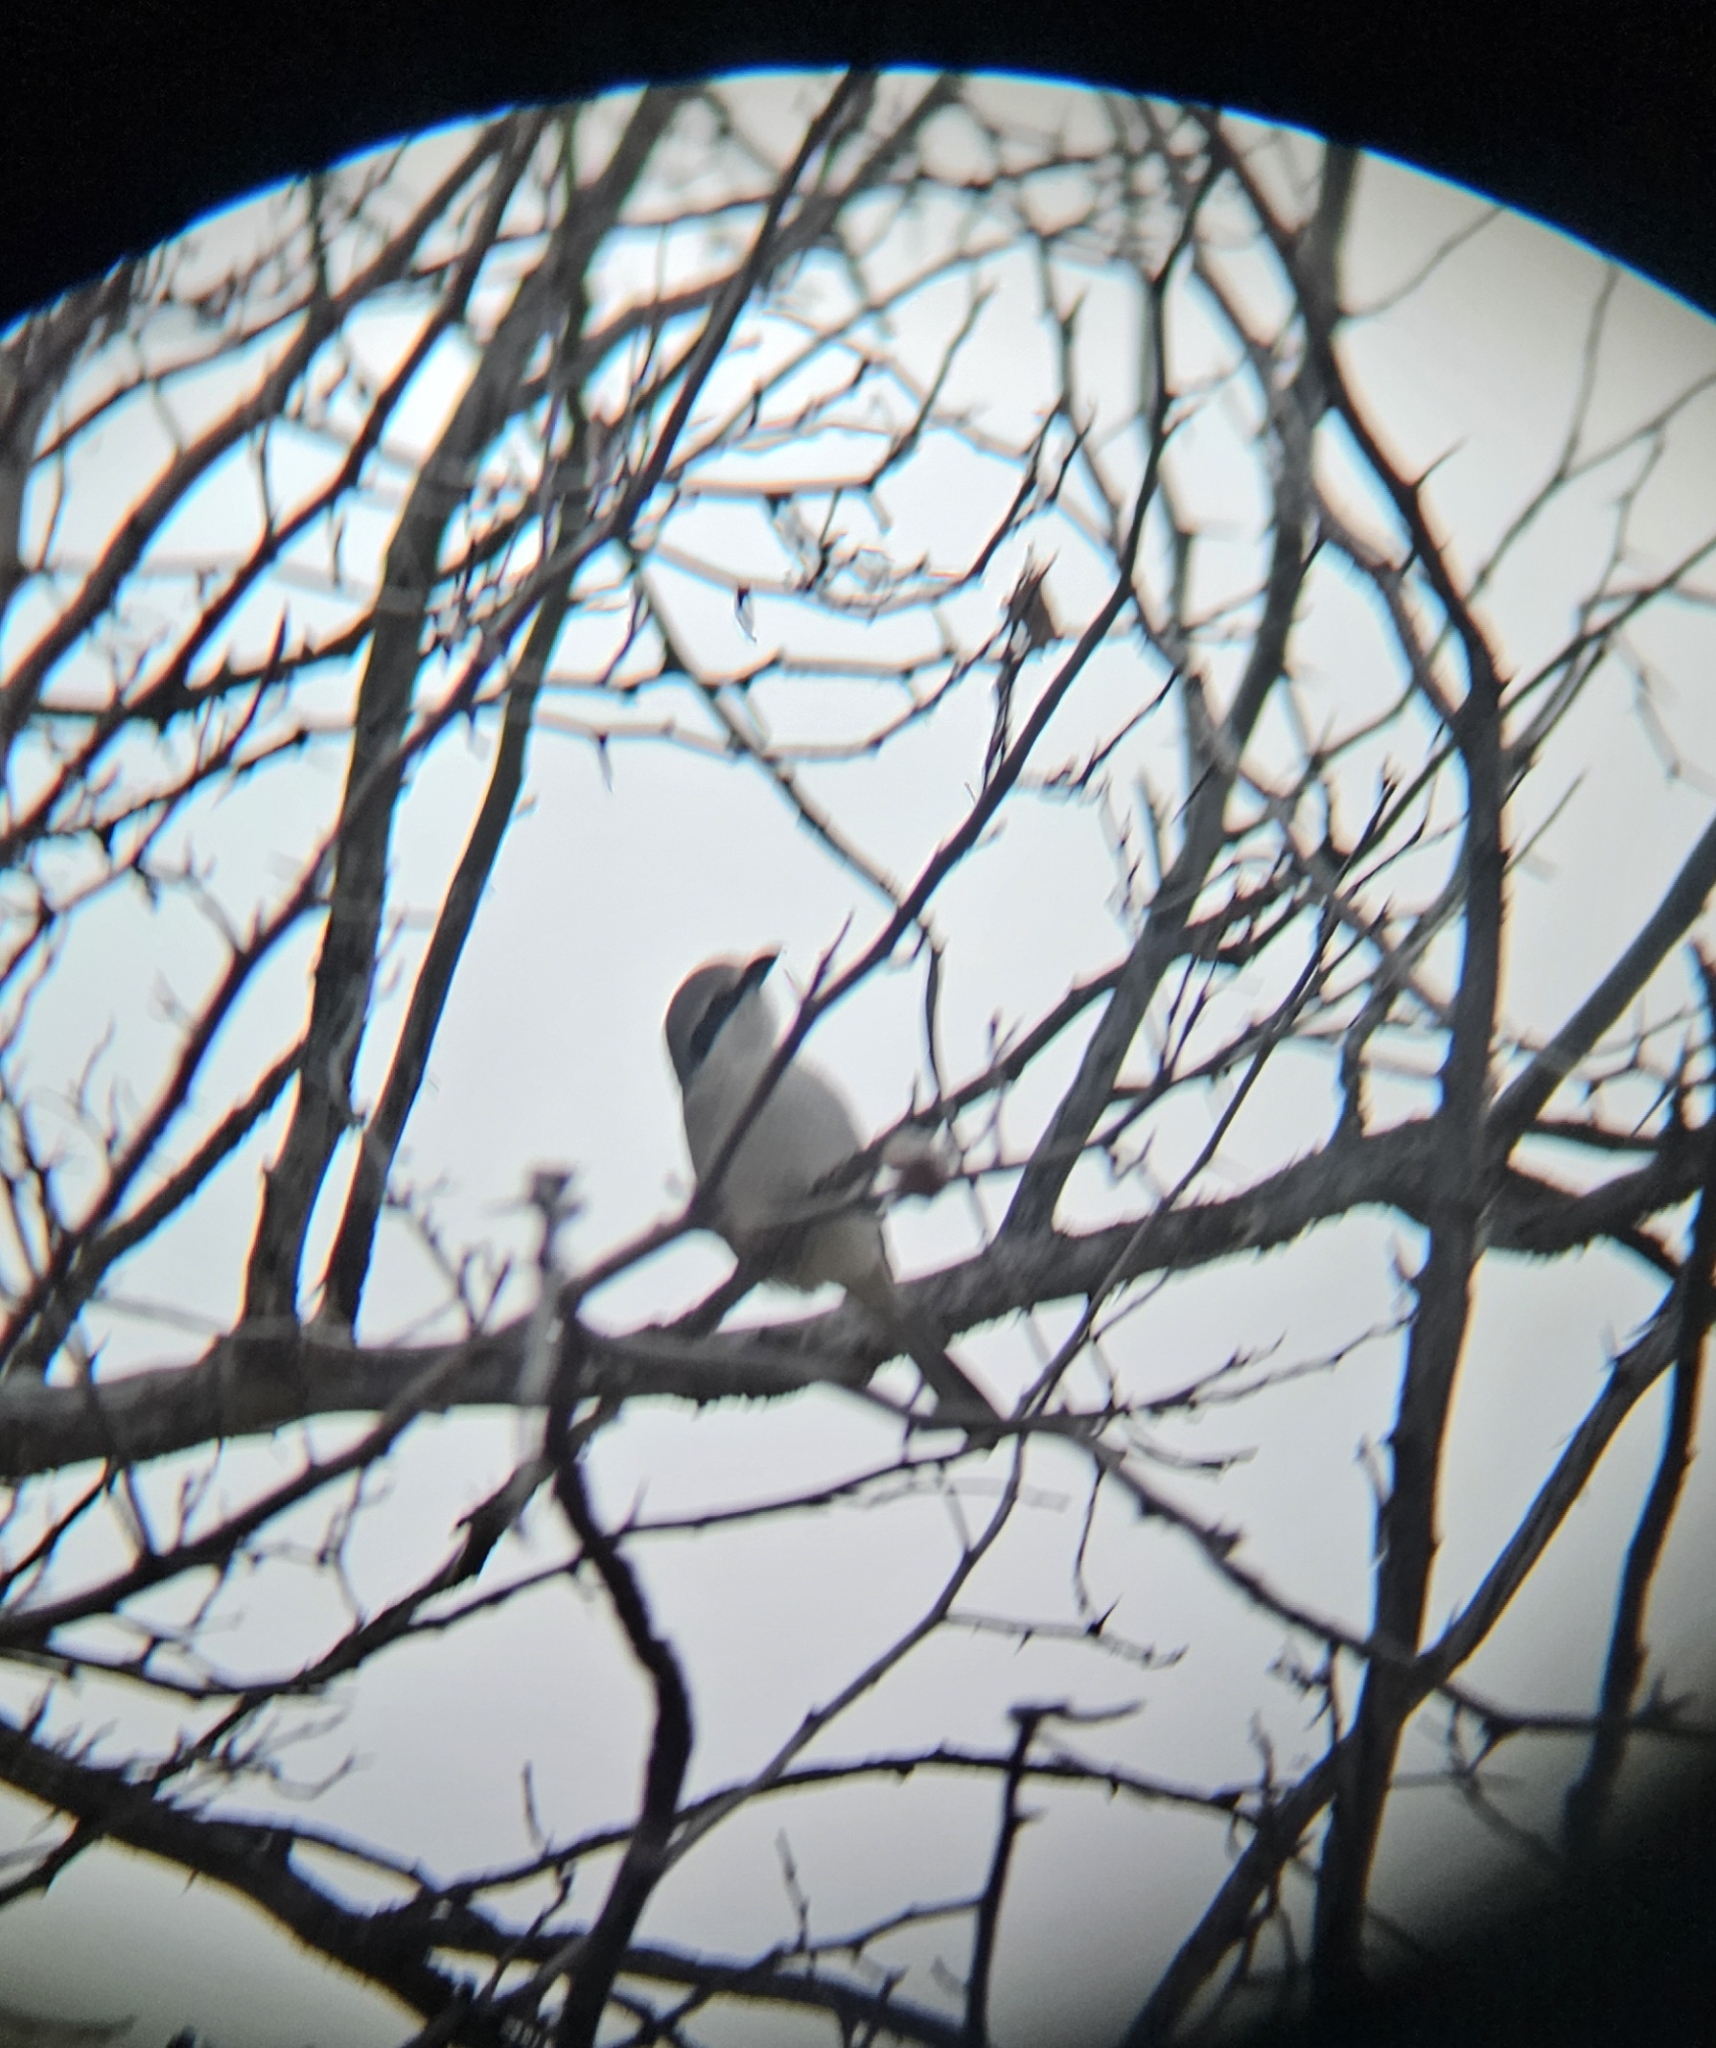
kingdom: Animalia
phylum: Chordata
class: Aves
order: Passeriformes
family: Laniidae
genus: Lanius
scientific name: Lanius borealis
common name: Northern shrike
